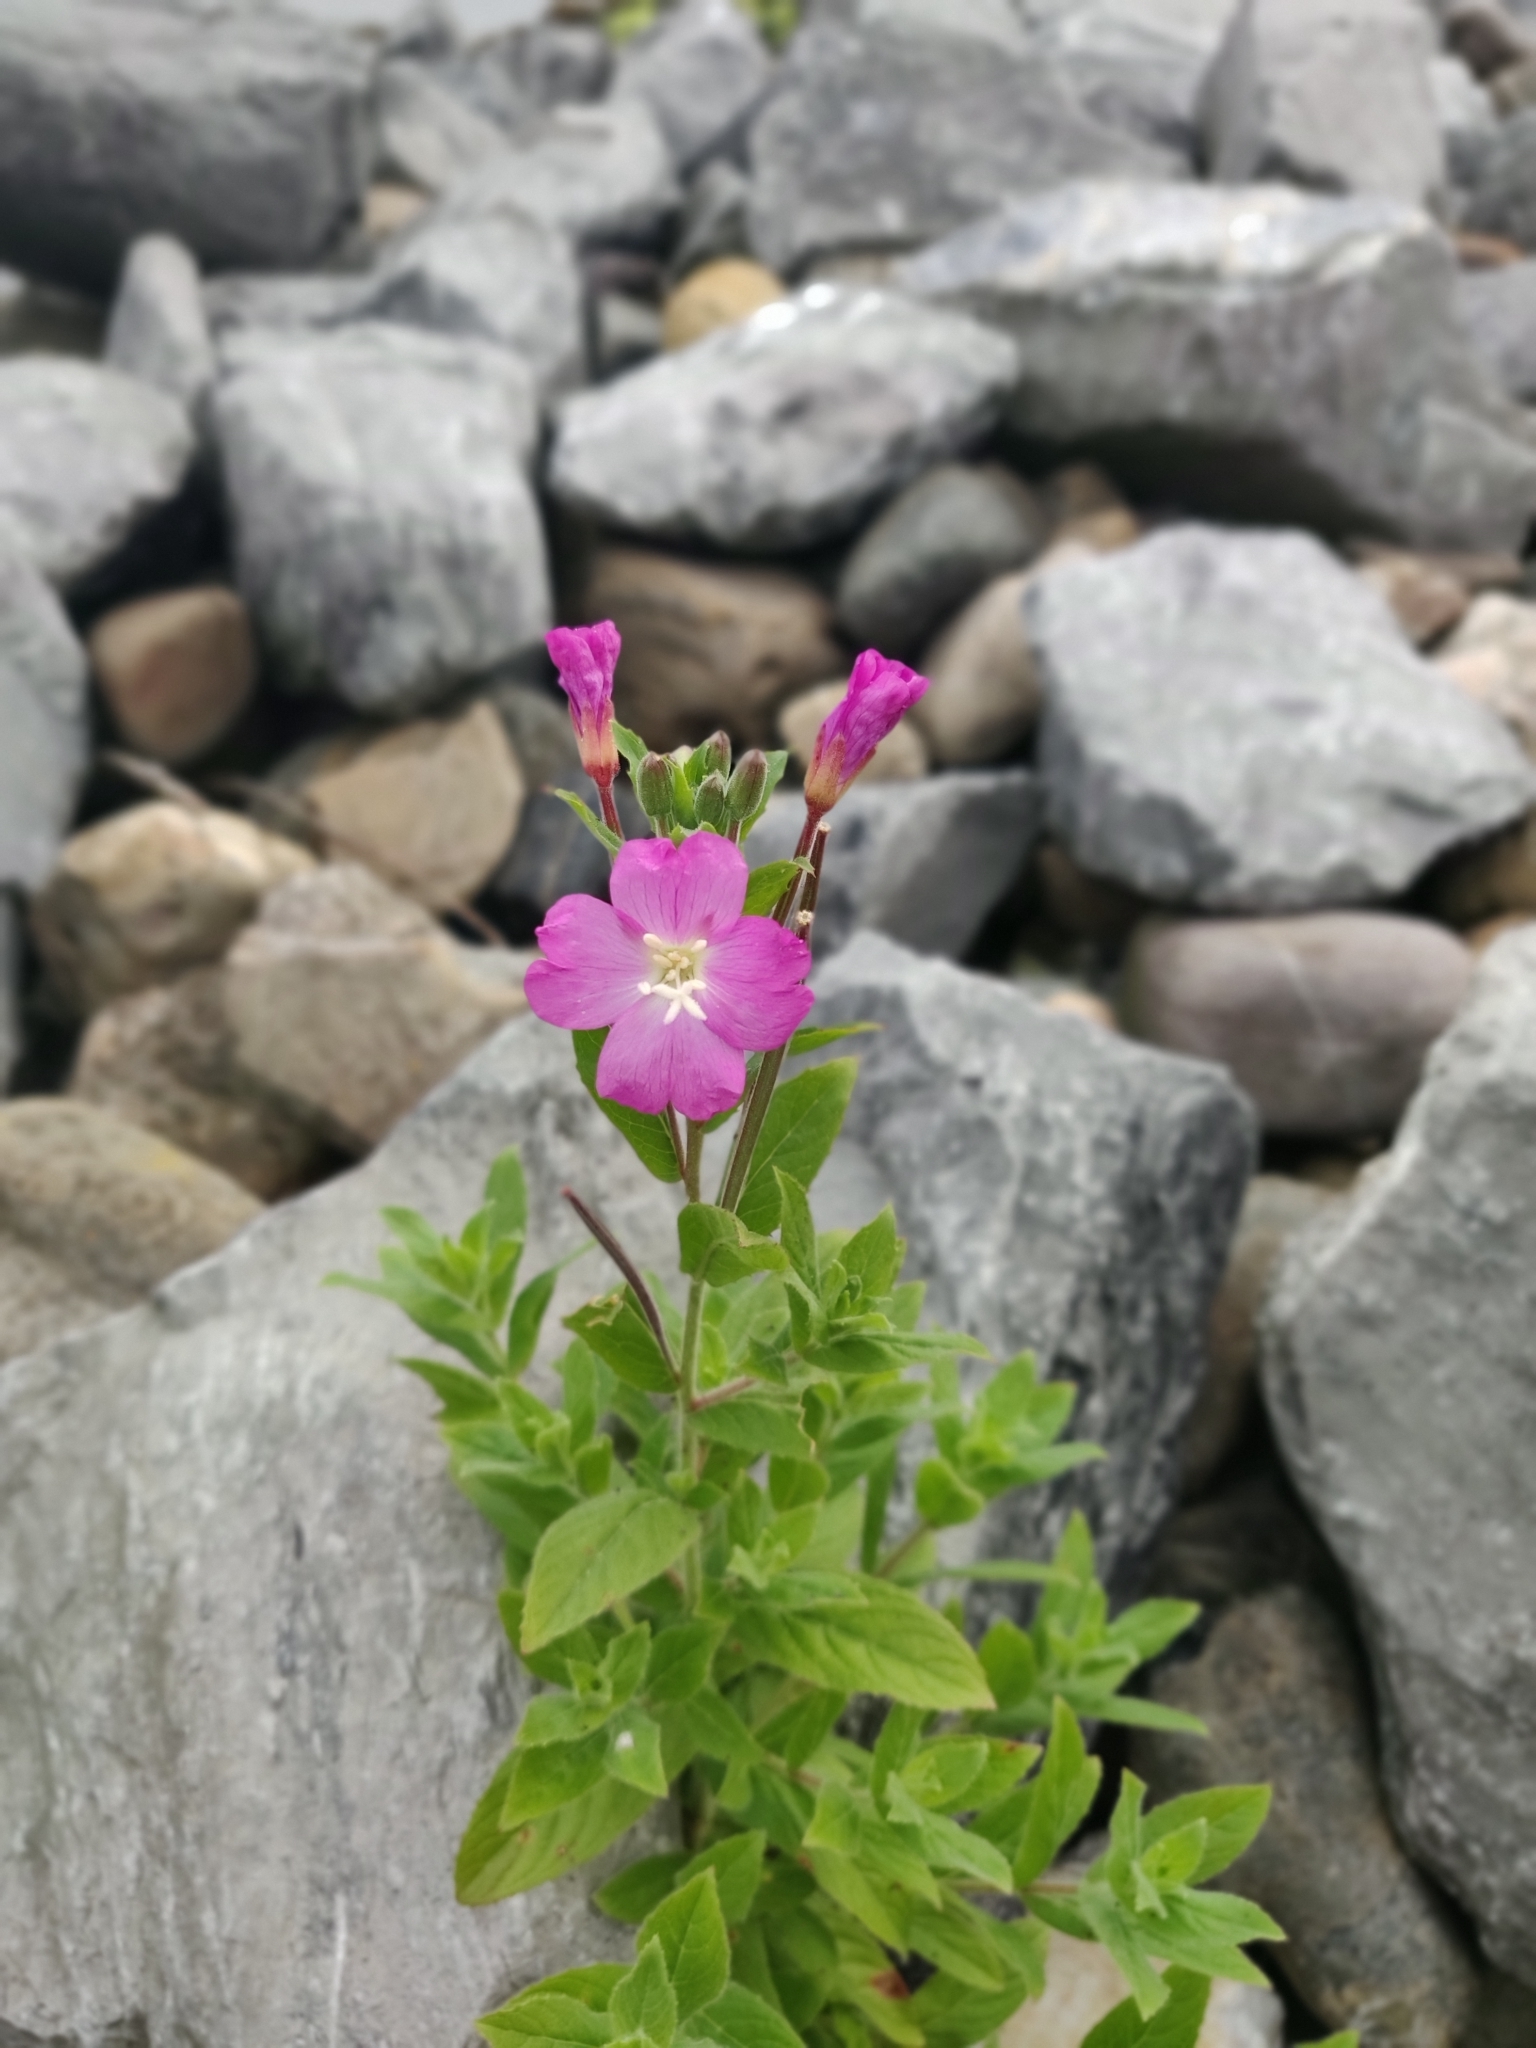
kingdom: Plantae
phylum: Tracheophyta
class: Magnoliopsida
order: Myrtales
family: Onagraceae
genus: Epilobium
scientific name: Epilobium hirsutum
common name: Great willowherb
